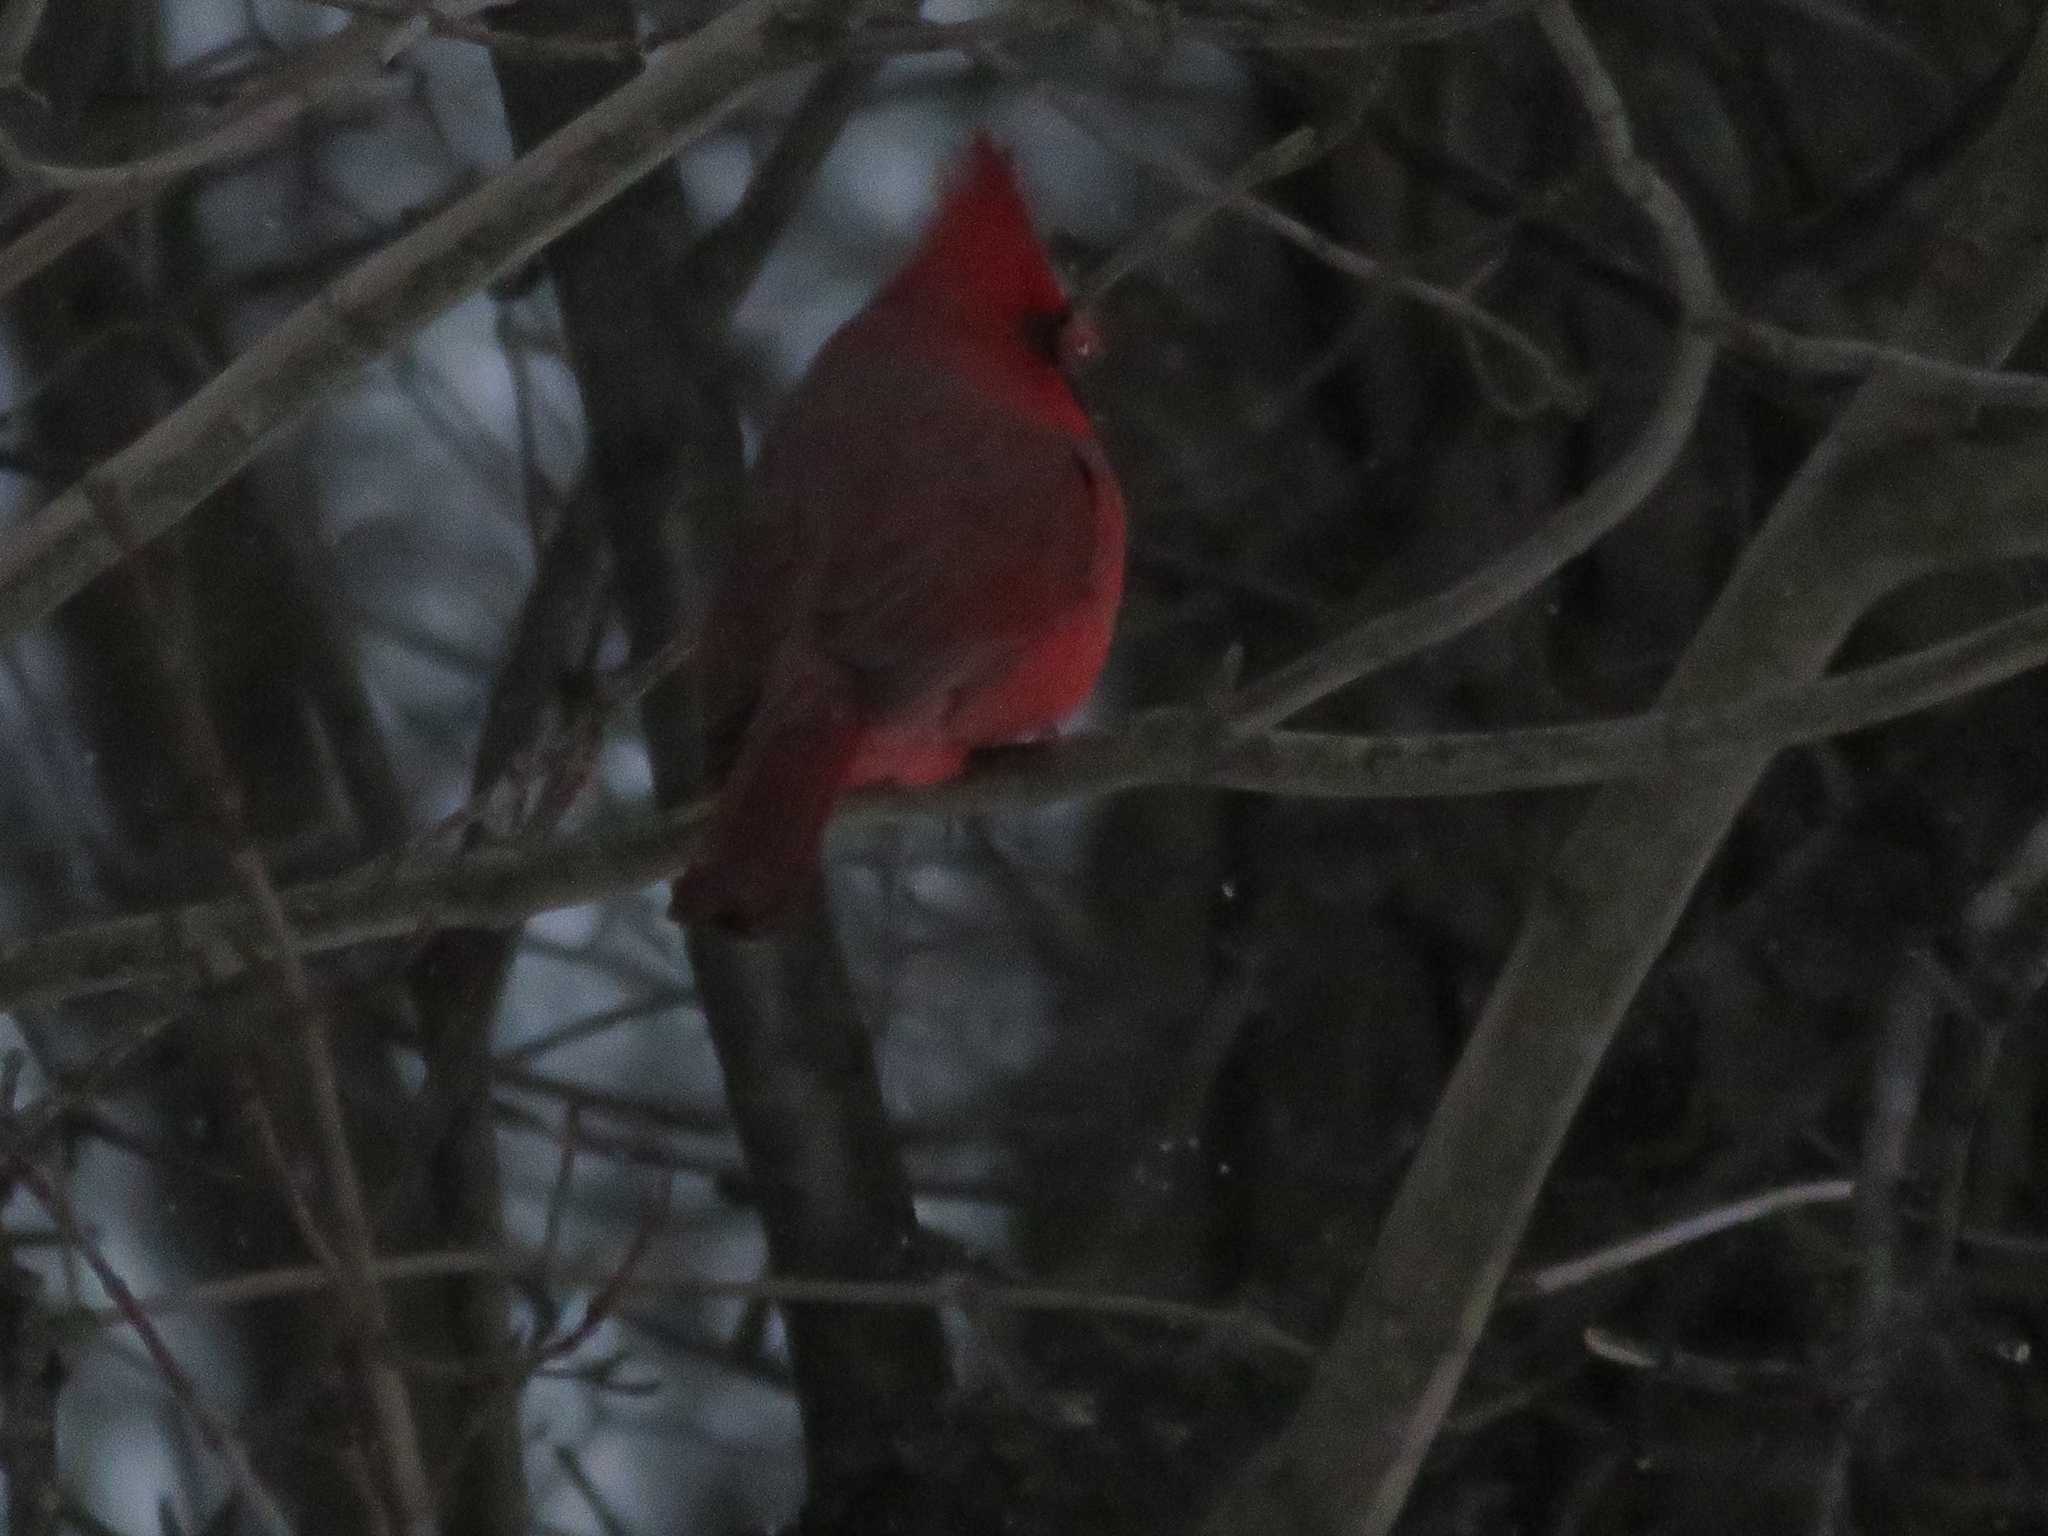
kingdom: Animalia
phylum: Chordata
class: Aves
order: Passeriformes
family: Cardinalidae
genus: Cardinalis
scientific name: Cardinalis cardinalis
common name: Northern cardinal
